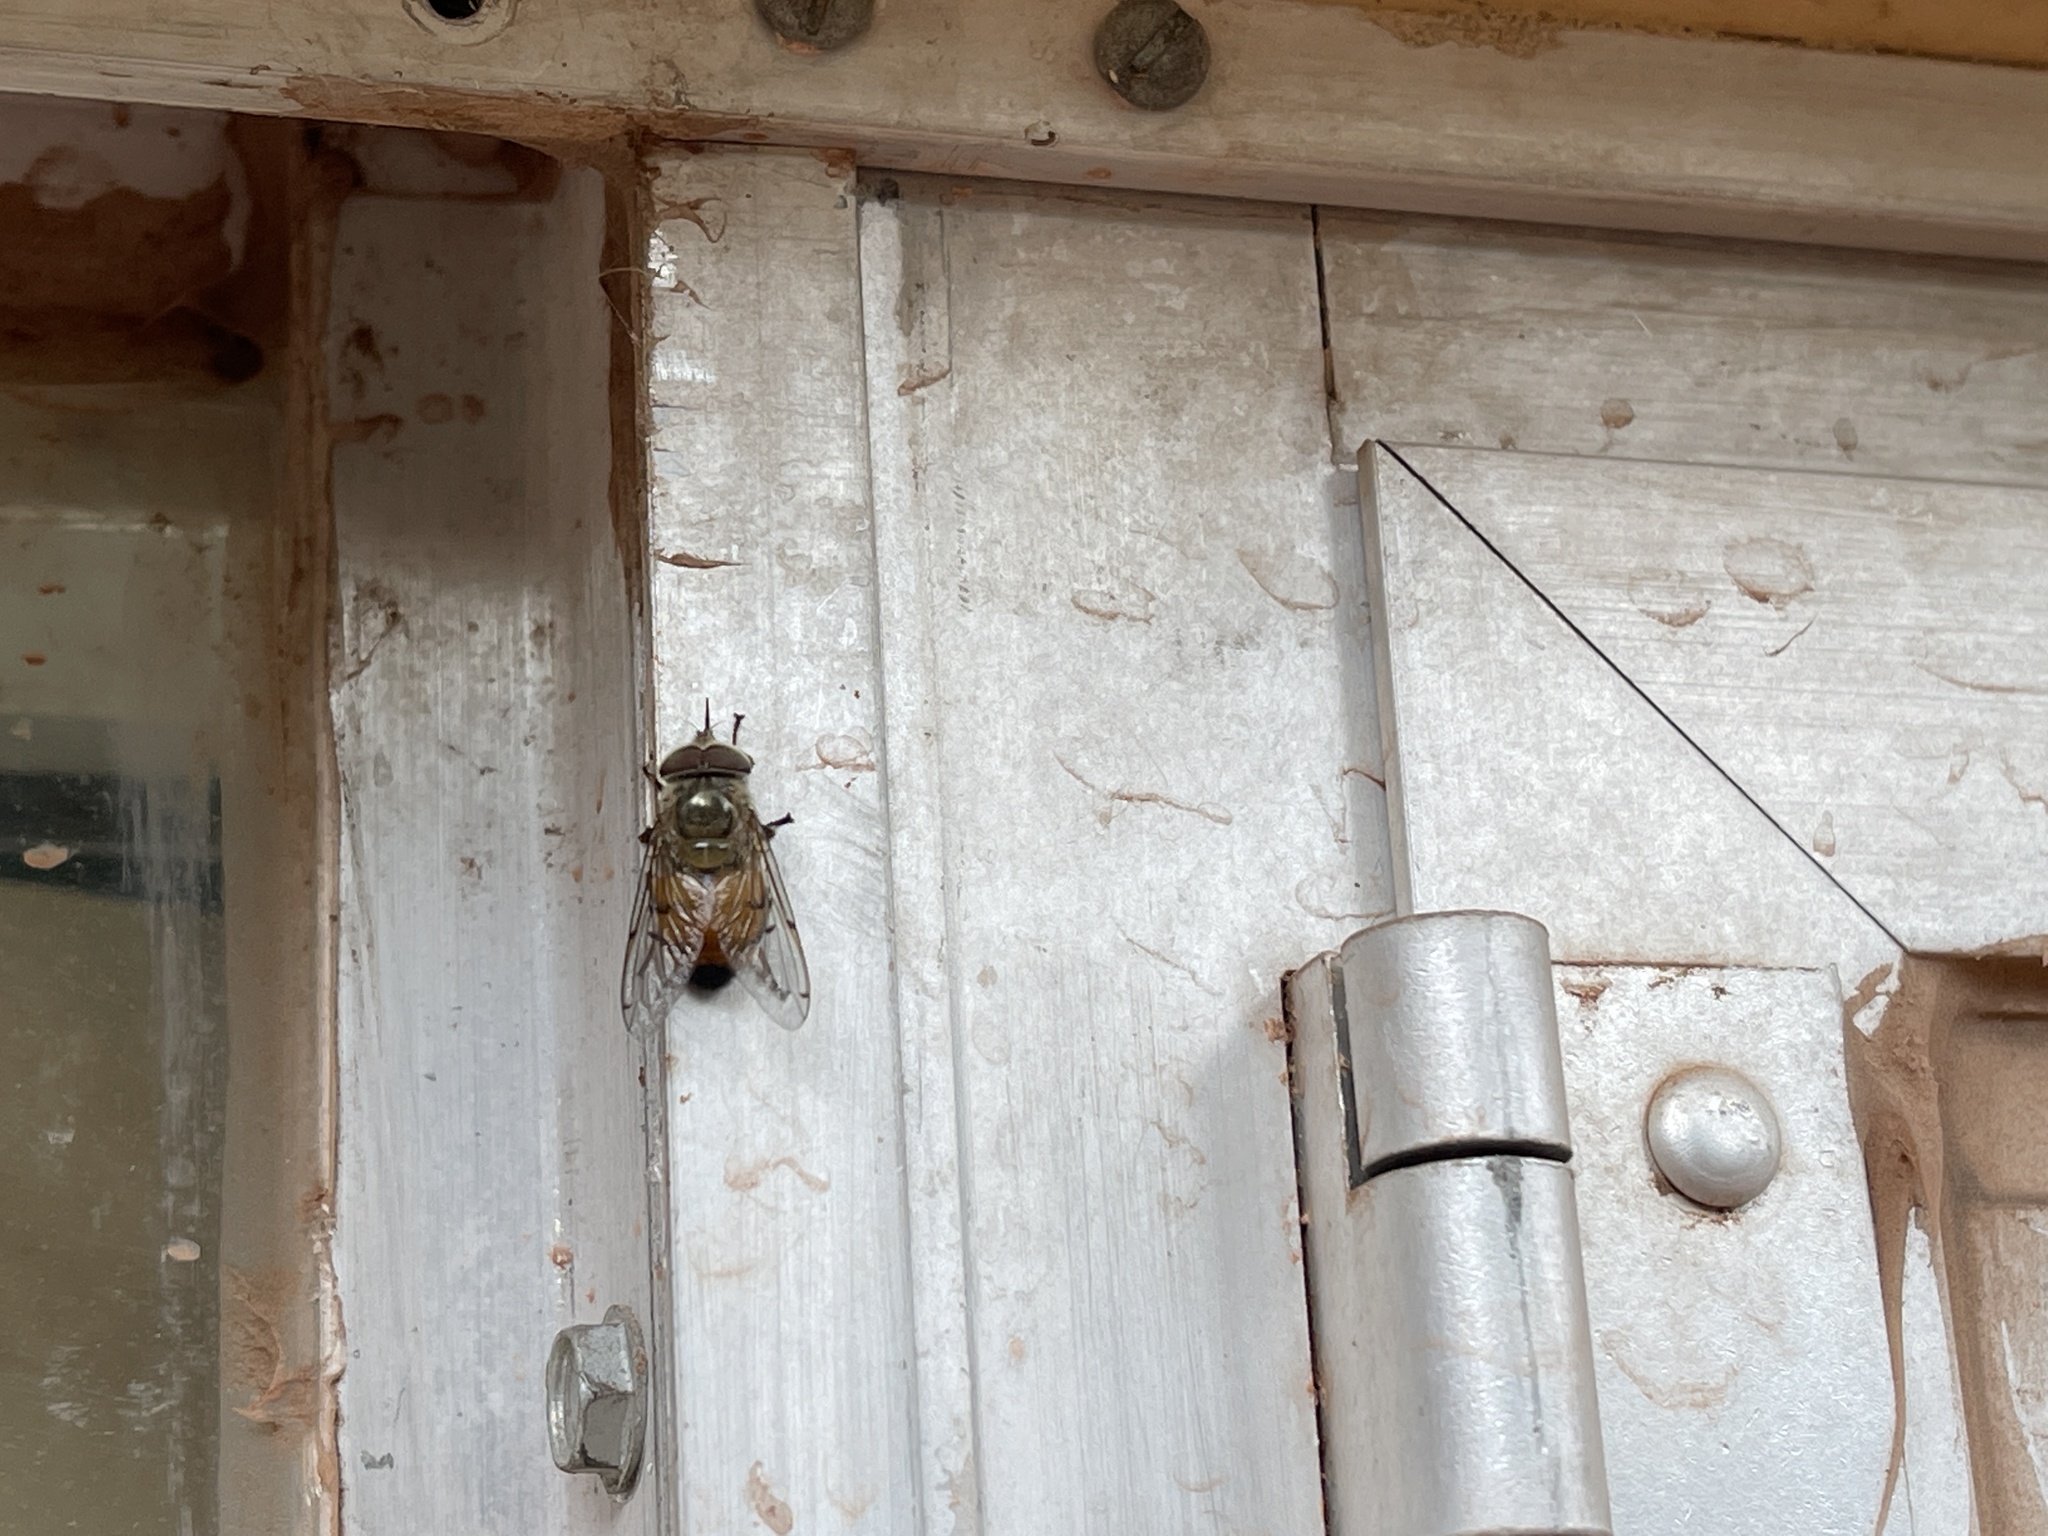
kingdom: Animalia
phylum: Arthropoda
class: Insecta
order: Diptera
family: Syrphidae
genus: Copestylum
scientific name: Copestylum haagii
